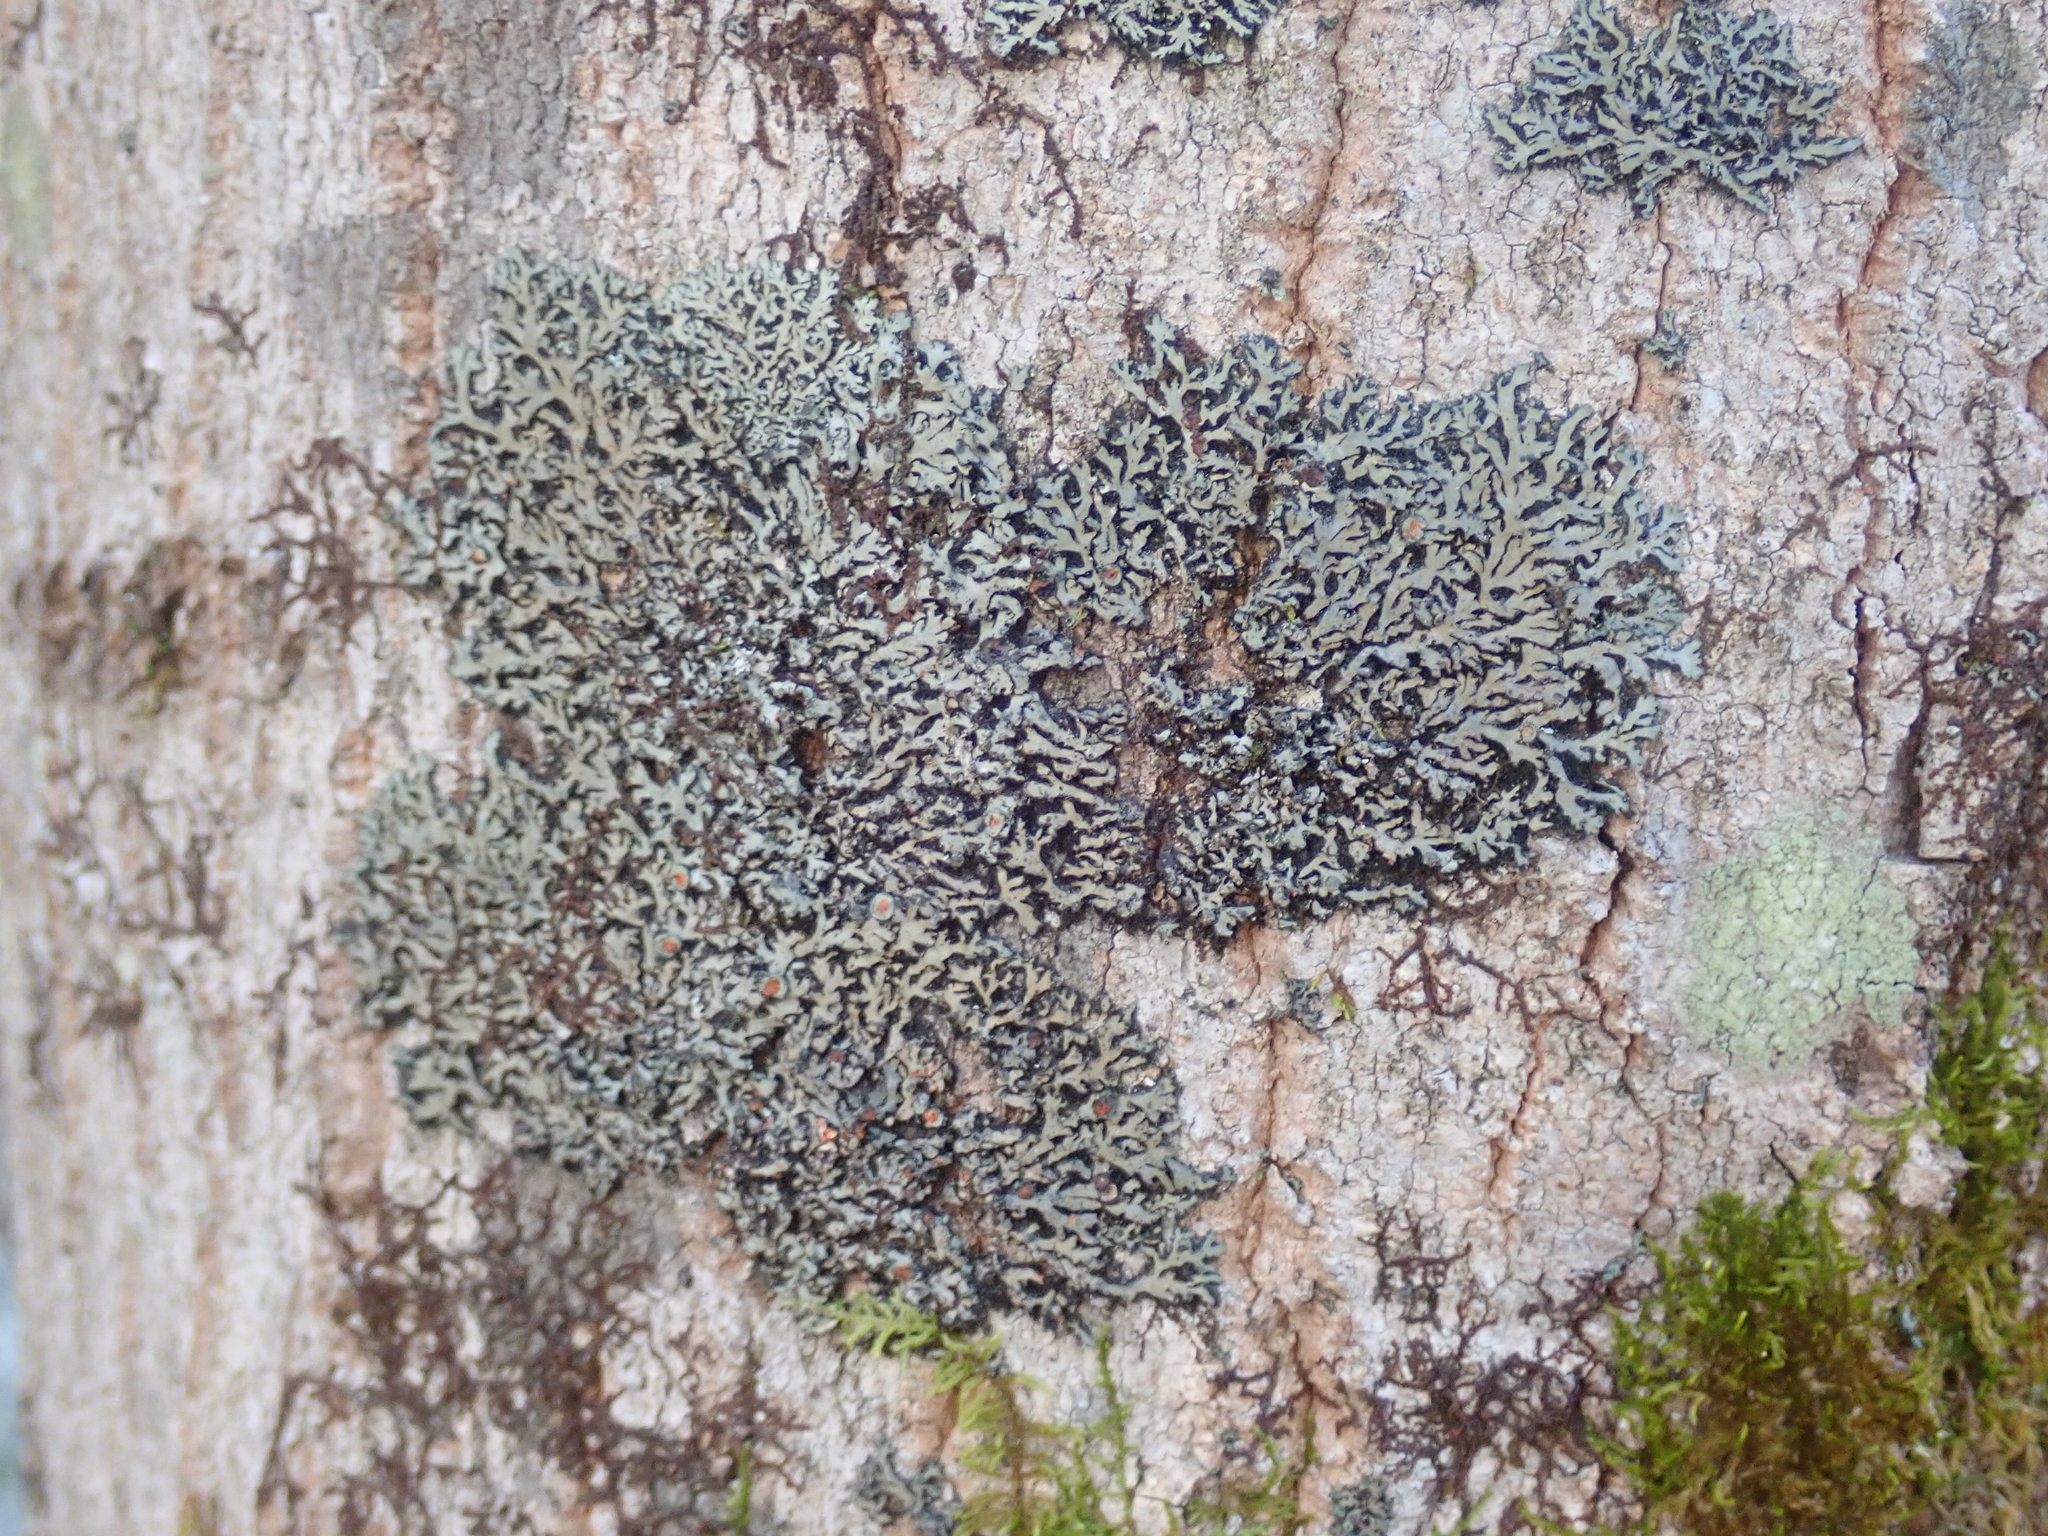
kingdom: Fungi
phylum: Ascomycota
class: Lecanoromycetes
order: Caliciales
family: Physciaceae
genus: Phaeophyscia
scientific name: Phaeophyscia rubropulchra
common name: Orange-cored shadow lichen
